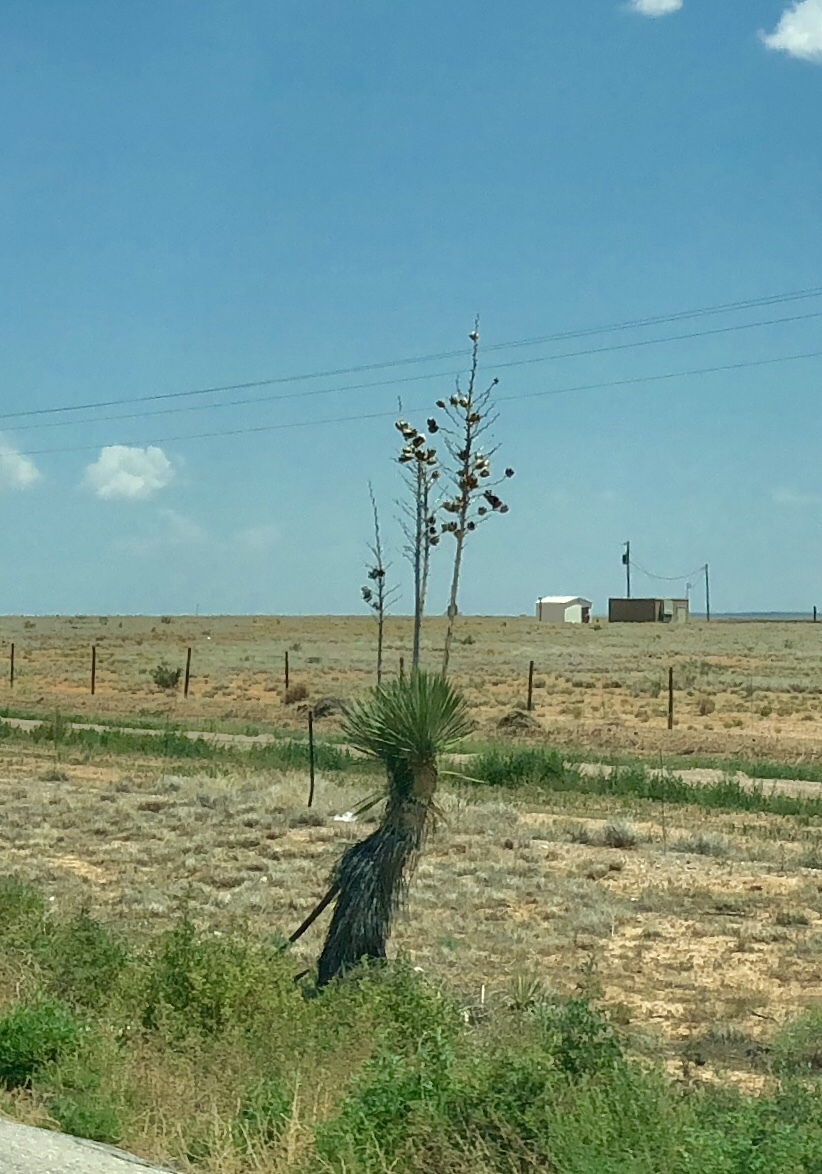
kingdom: Plantae
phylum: Tracheophyta
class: Liliopsida
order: Asparagales
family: Asparagaceae
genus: Yucca
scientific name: Yucca elata
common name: Palmella
